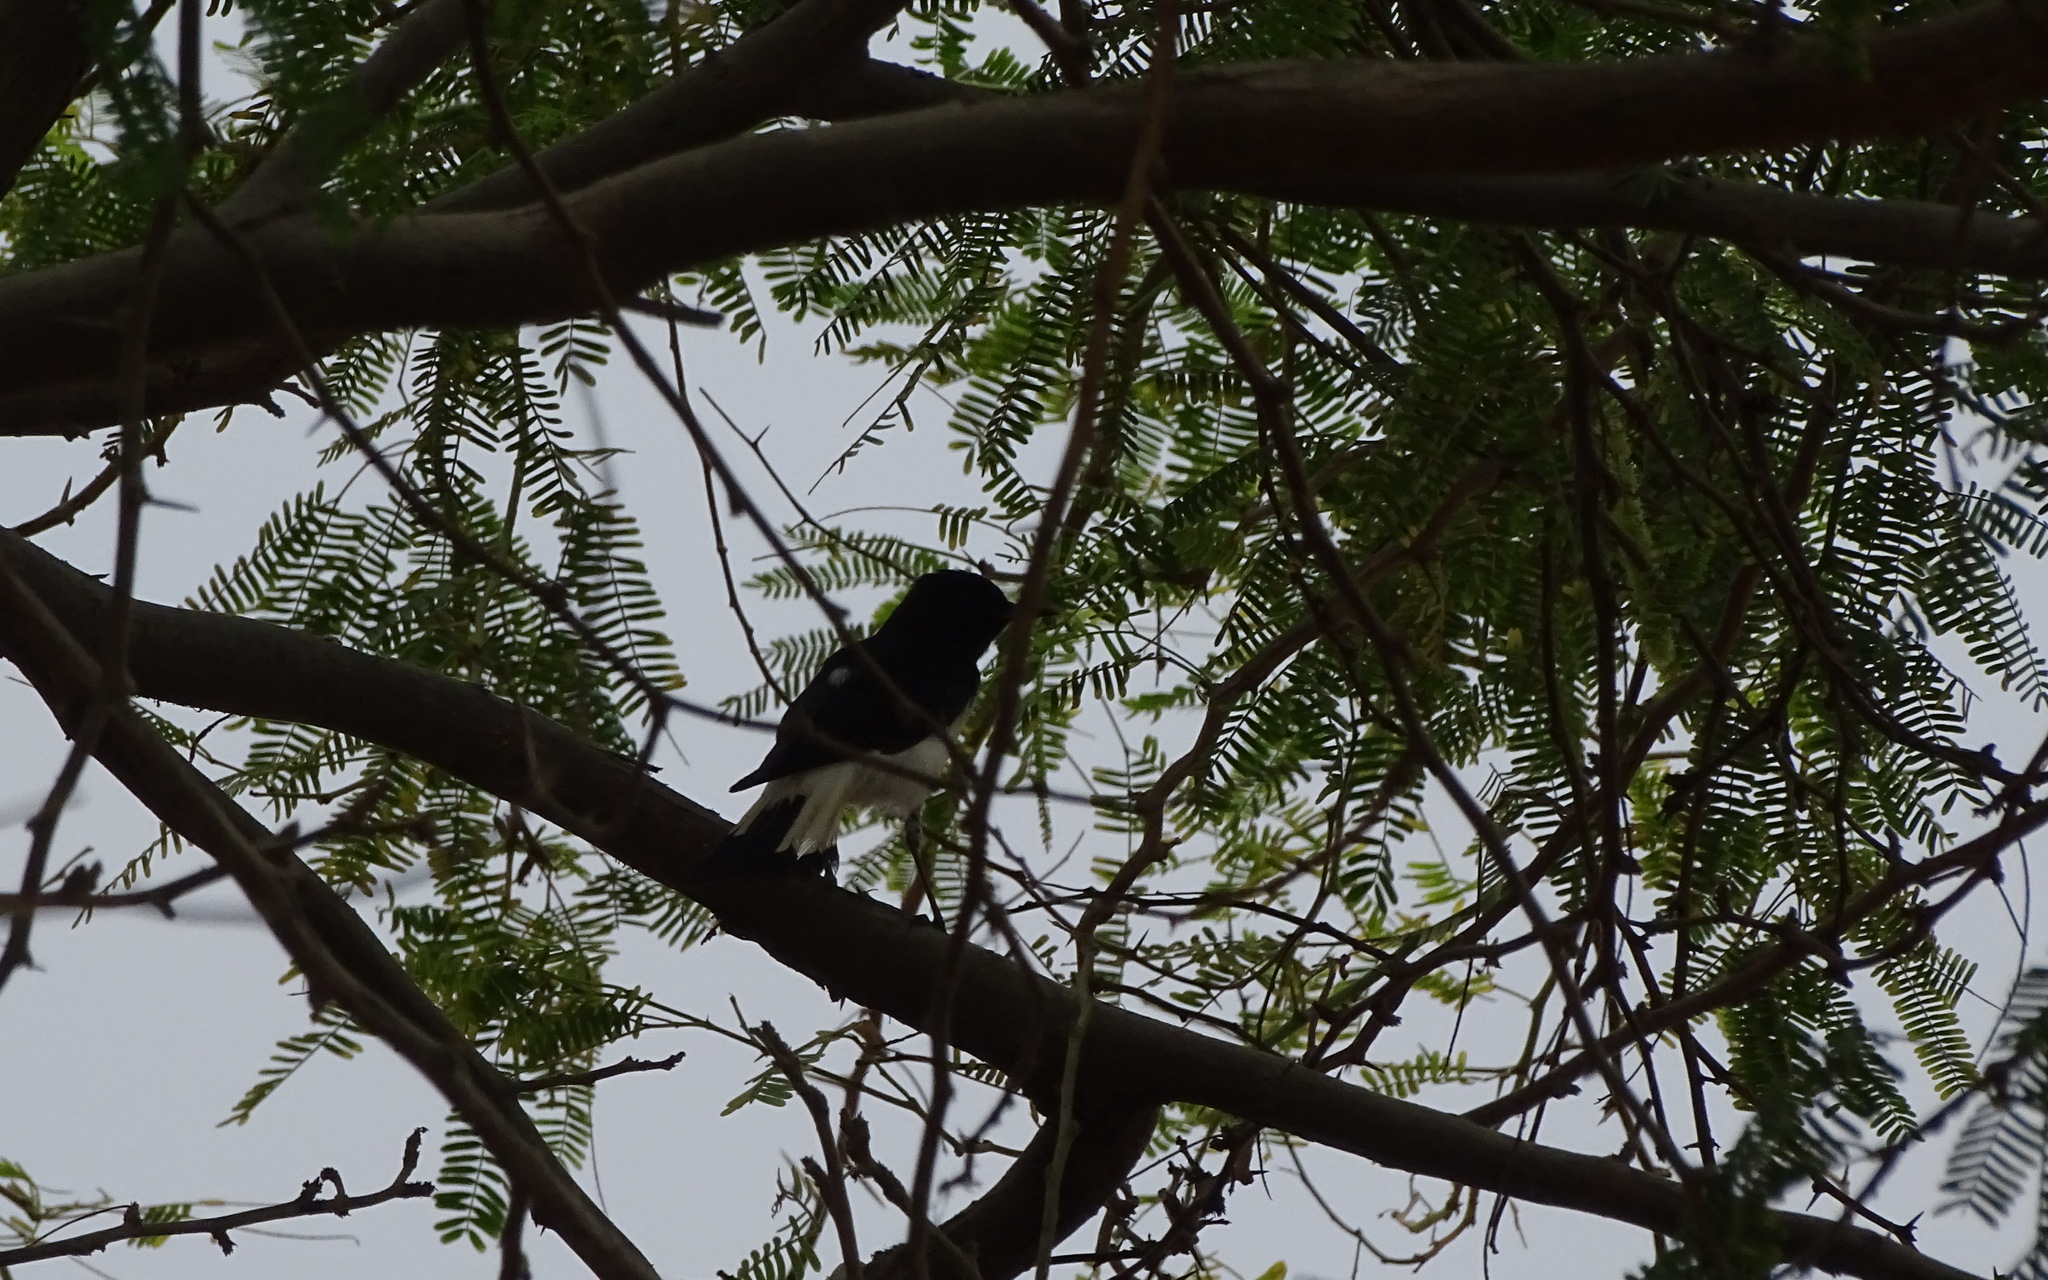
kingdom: Animalia
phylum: Chordata
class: Aves
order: Passeriformes
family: Muscicapidae
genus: Oenanthe
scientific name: Oenanthe albonigra
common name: Hume's wheatear
